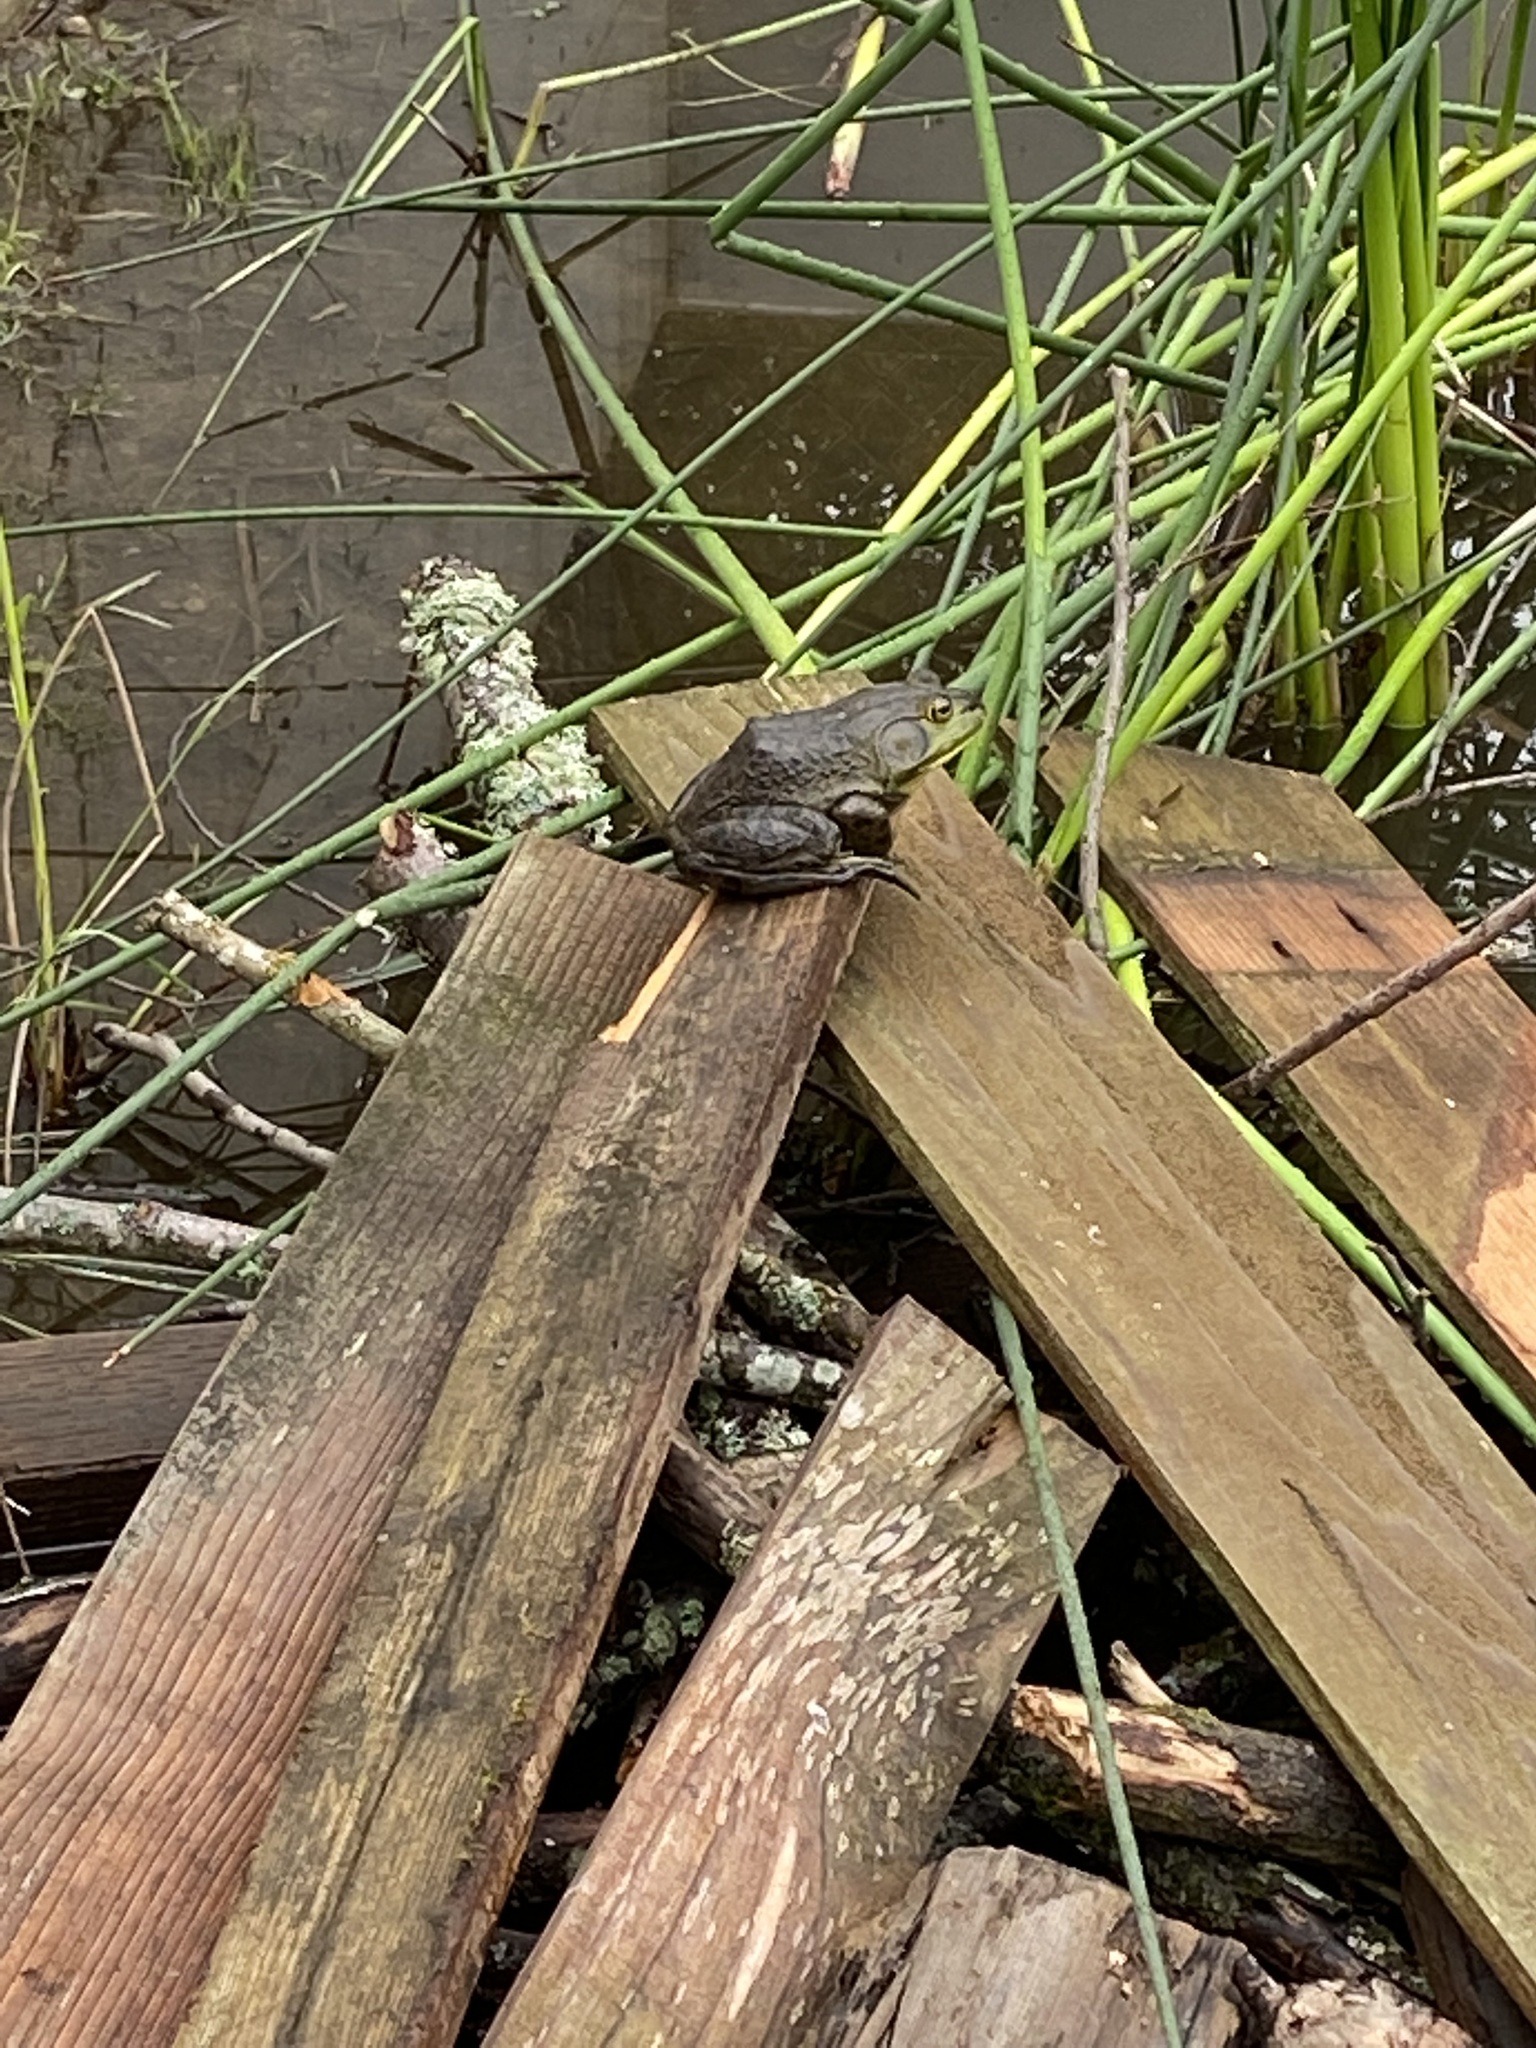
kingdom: Animalia
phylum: Chordata
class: Amphibia
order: Anura
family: Ranidae
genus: Lithobates
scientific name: Lithobates catesbeianus
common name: American bullfrog
